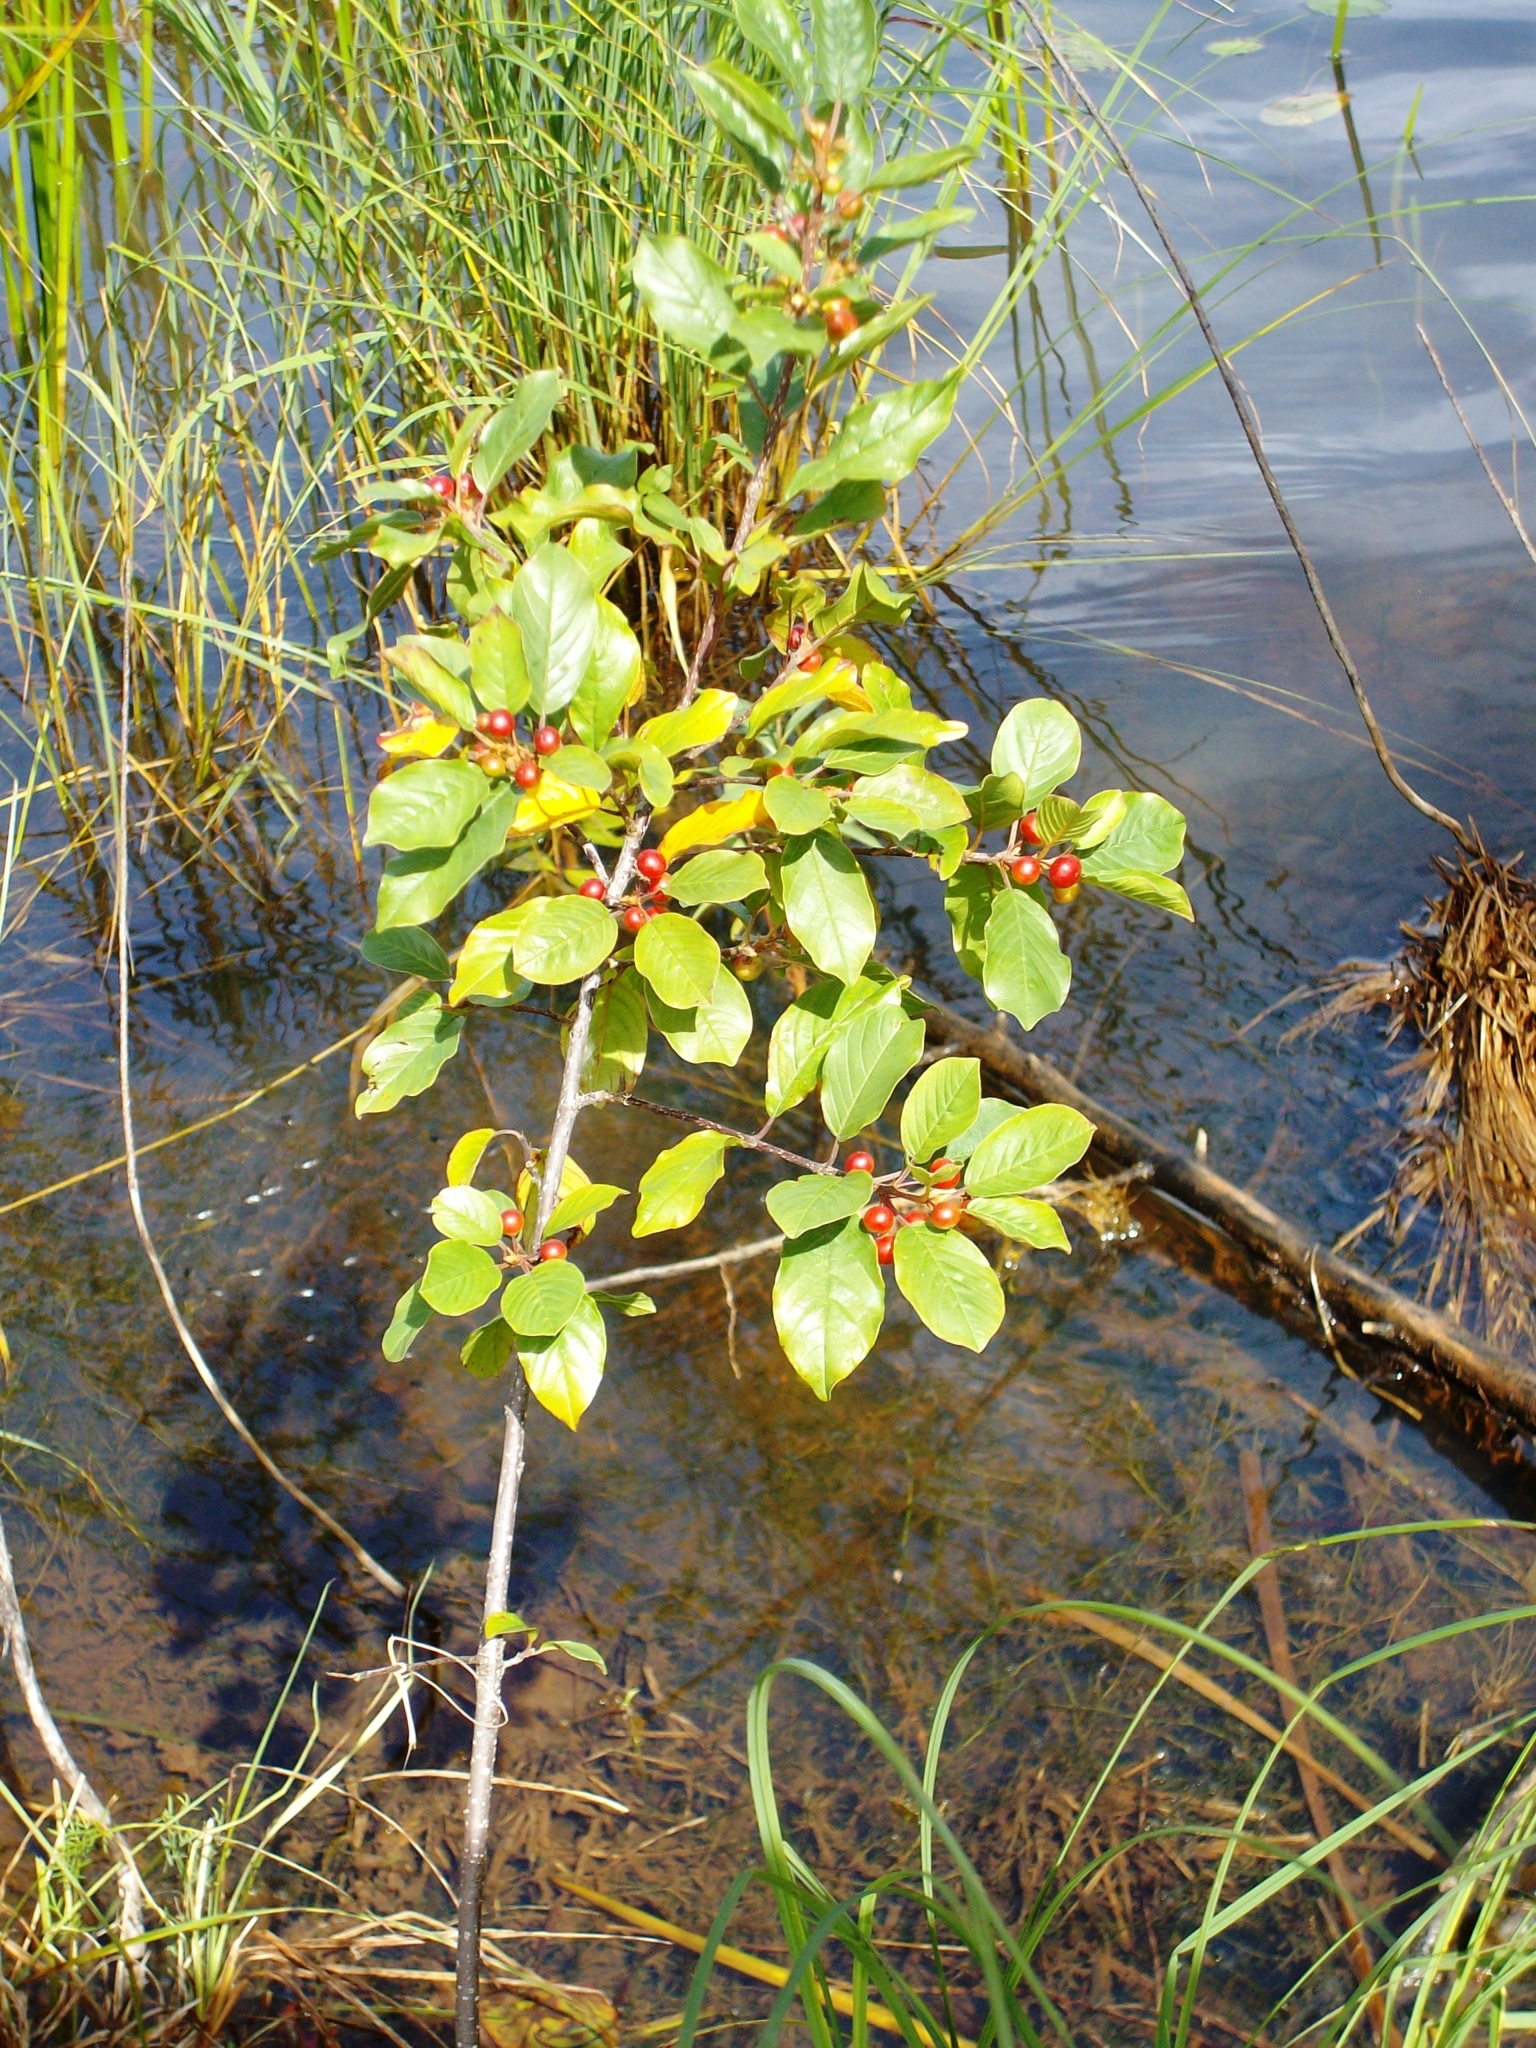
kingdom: Plantae
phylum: Tracheophyta
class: Magnoliopsida
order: Aquifoliales
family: Aquifoliaceae
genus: Ilex
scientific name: Ilex verticillata
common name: Virginia winterberry
